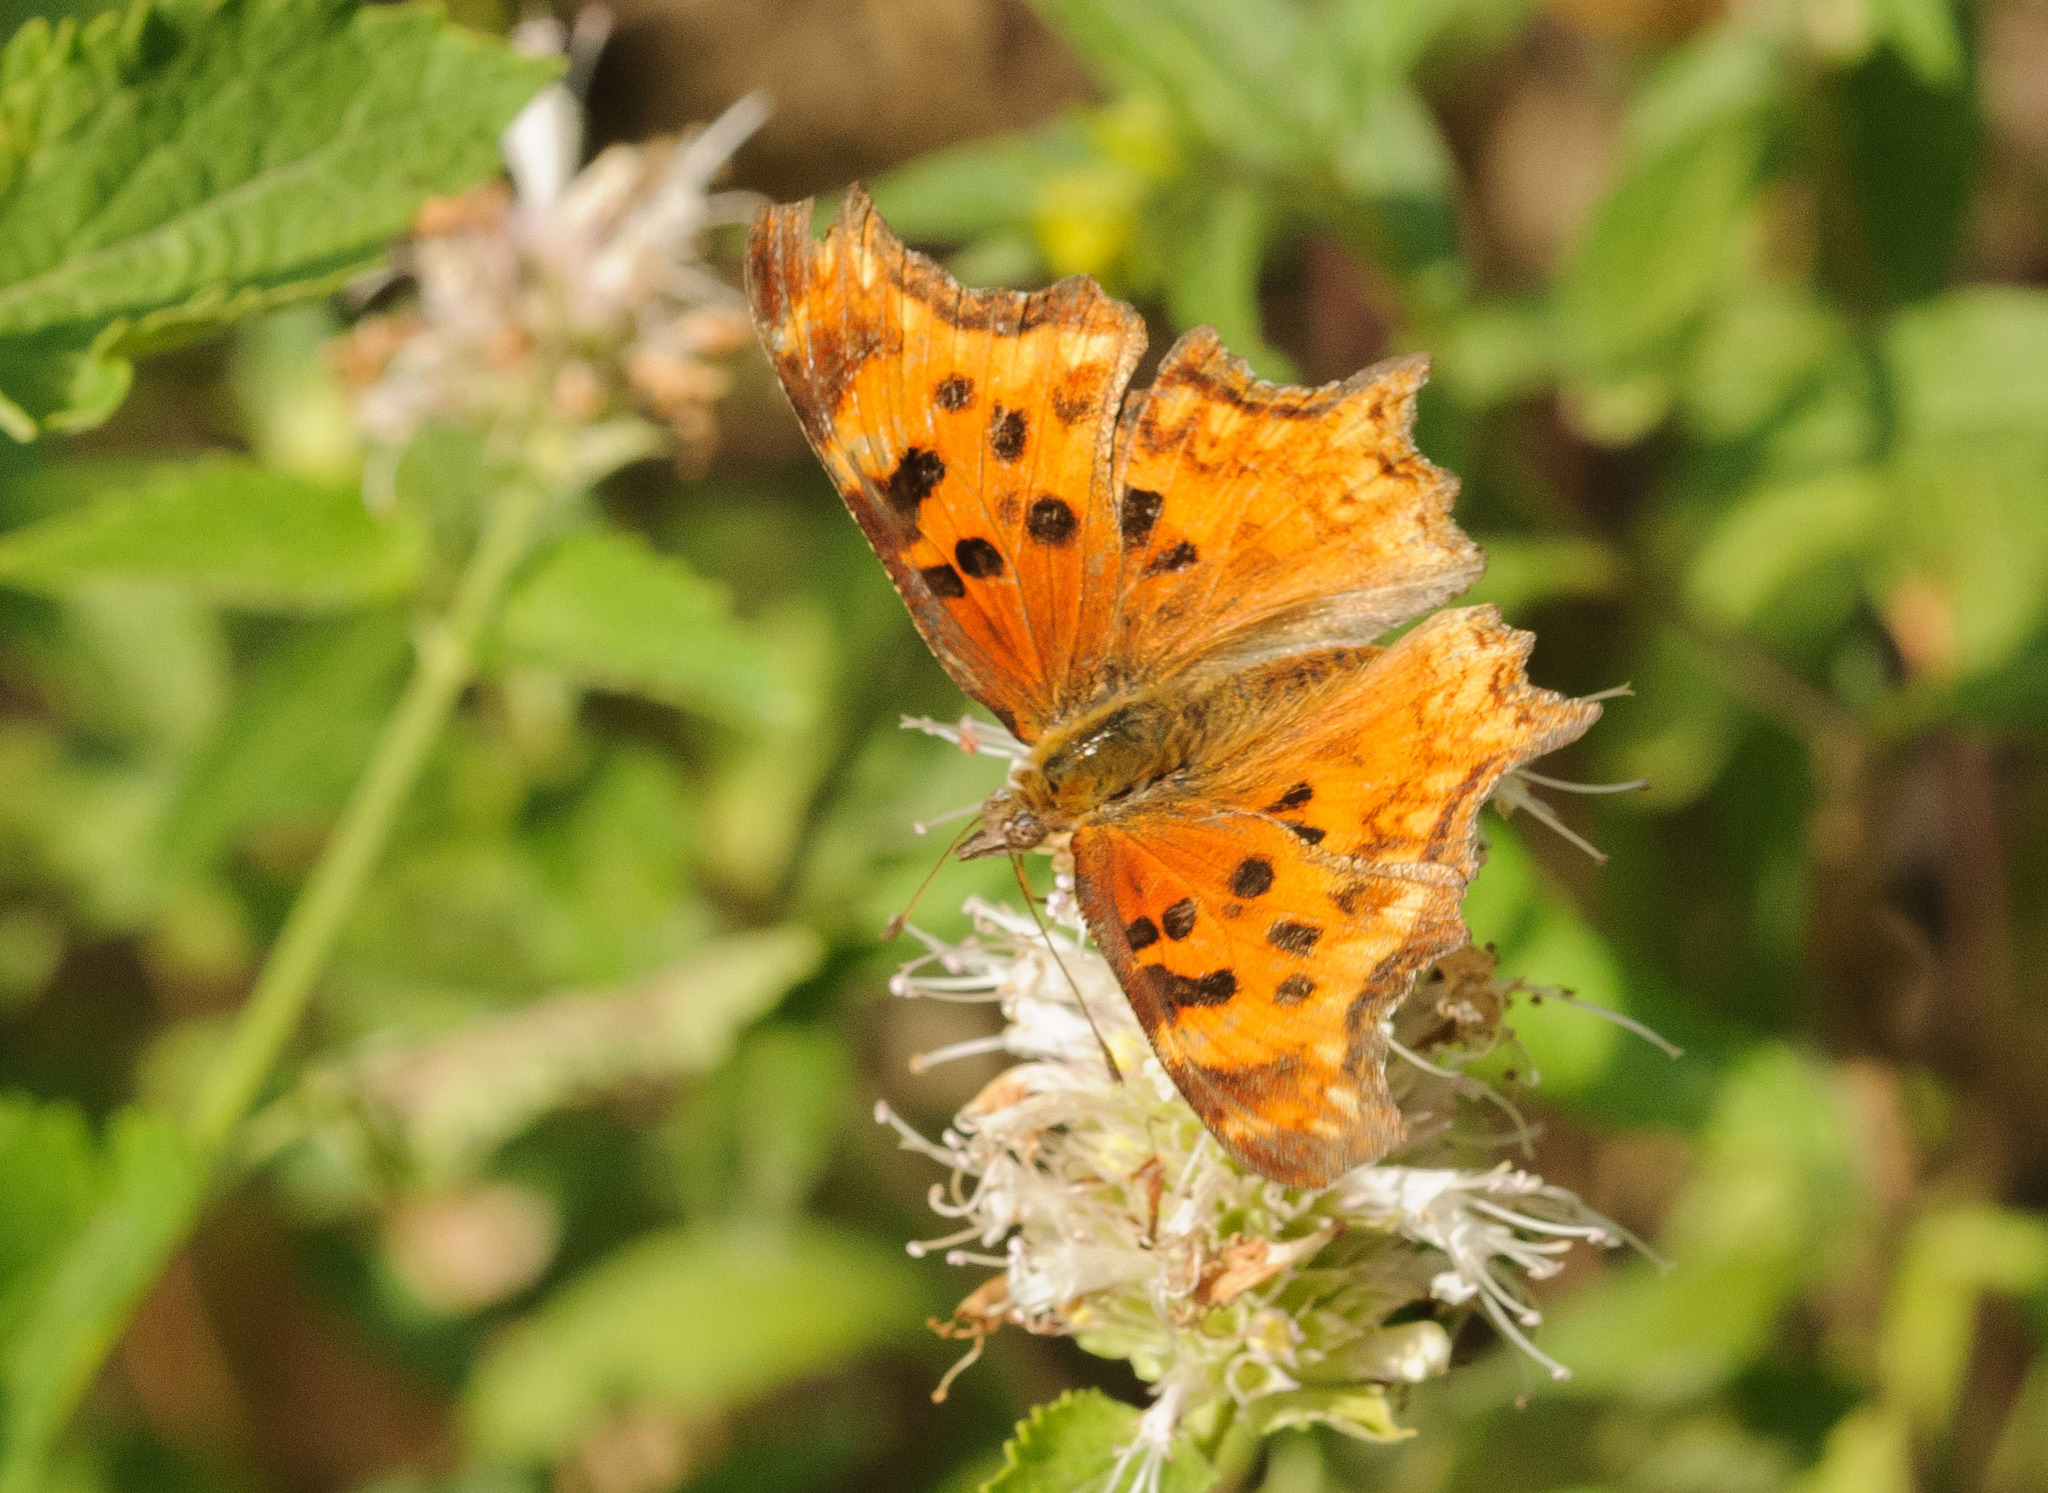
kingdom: Animalia
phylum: Arthropoda
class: Insecta
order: Lepidoptera
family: Nymphalidae
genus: Polygonia
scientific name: Polygonia gracilis
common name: Hoary comma
